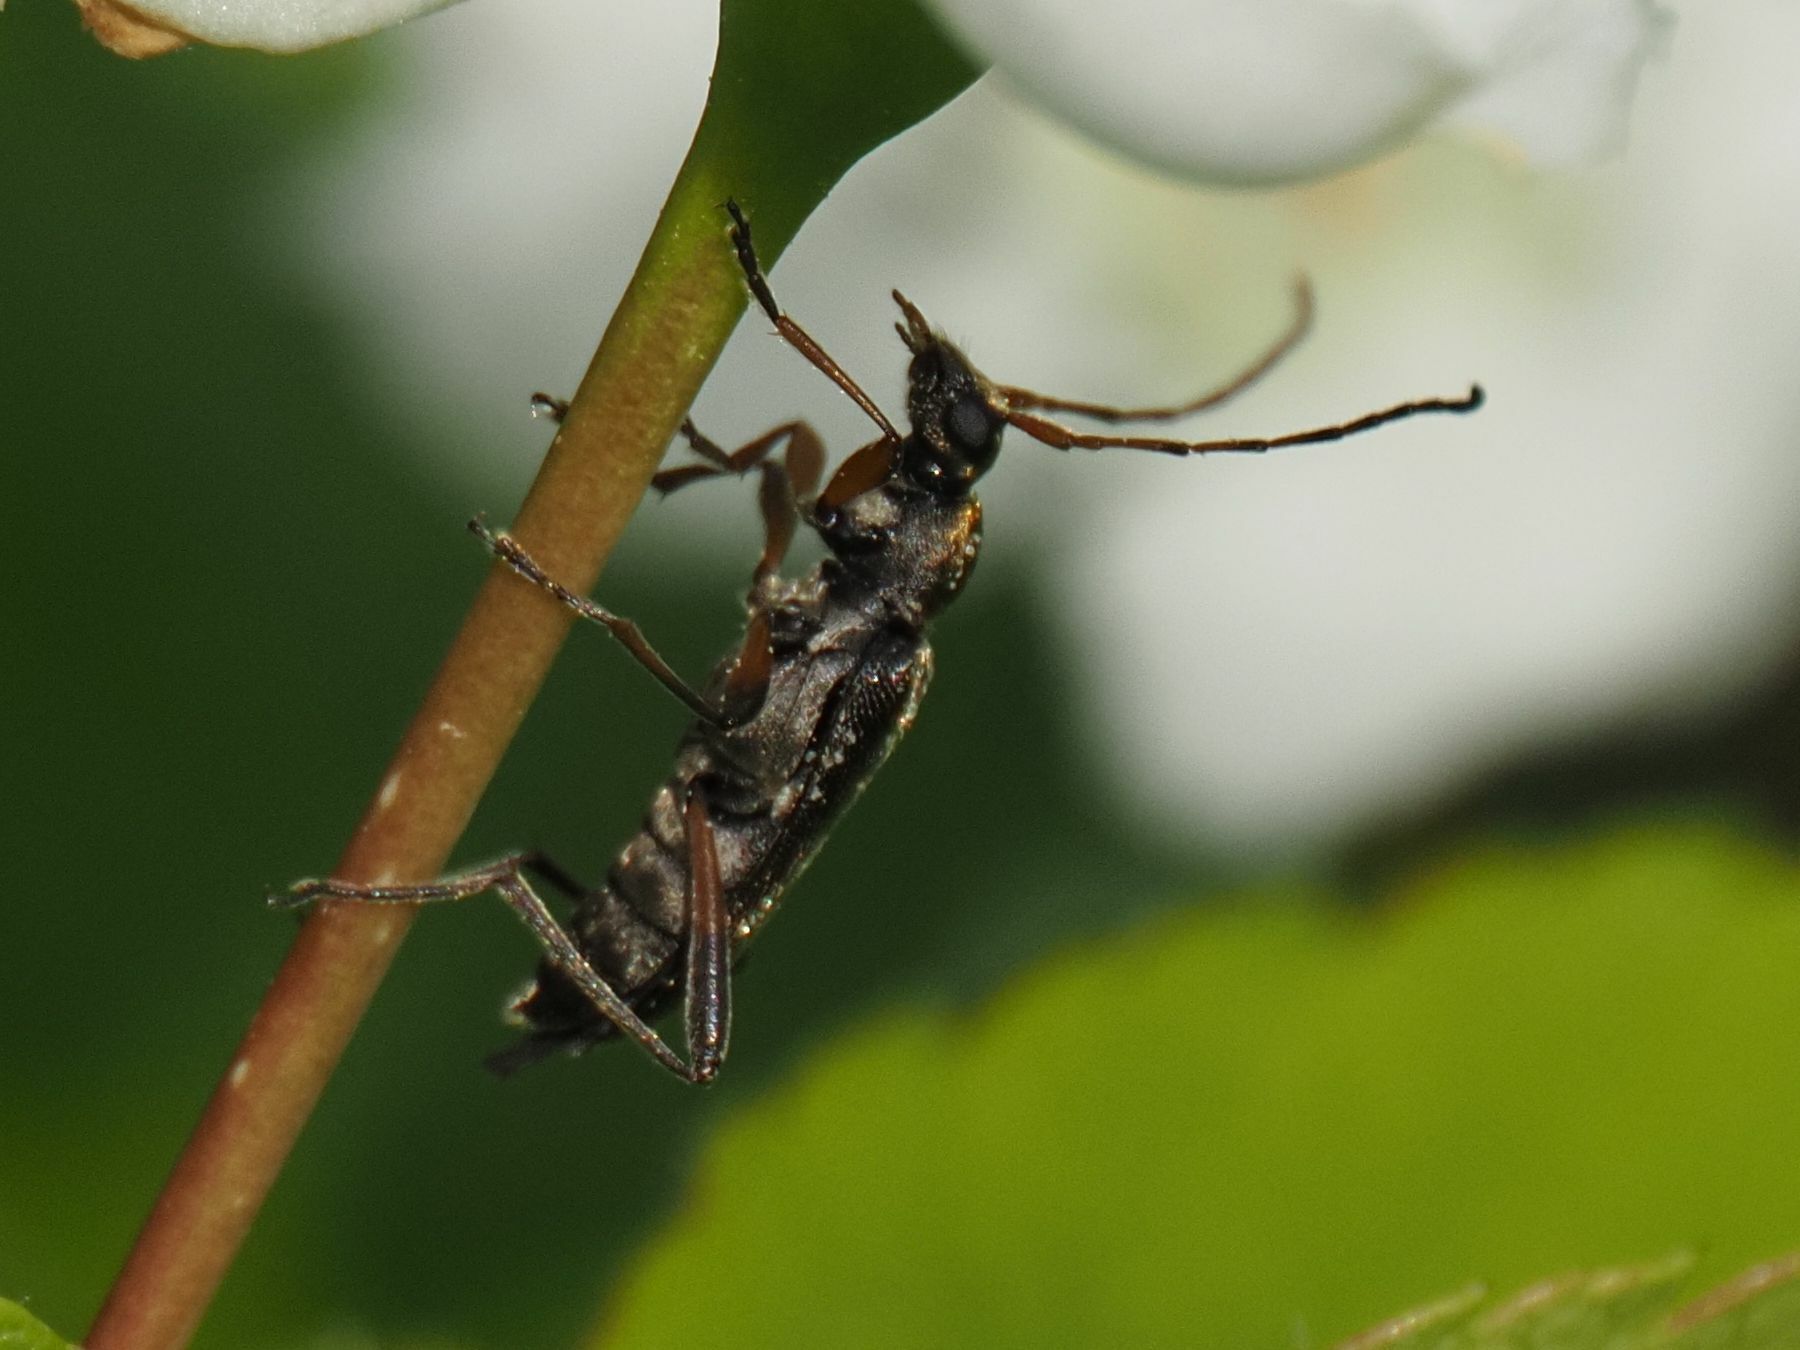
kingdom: Animalia
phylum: Arthropoda
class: Insecta
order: Coleoptera
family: Cerambycidae
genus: Grammoptera
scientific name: Grammoptera ruficornis
